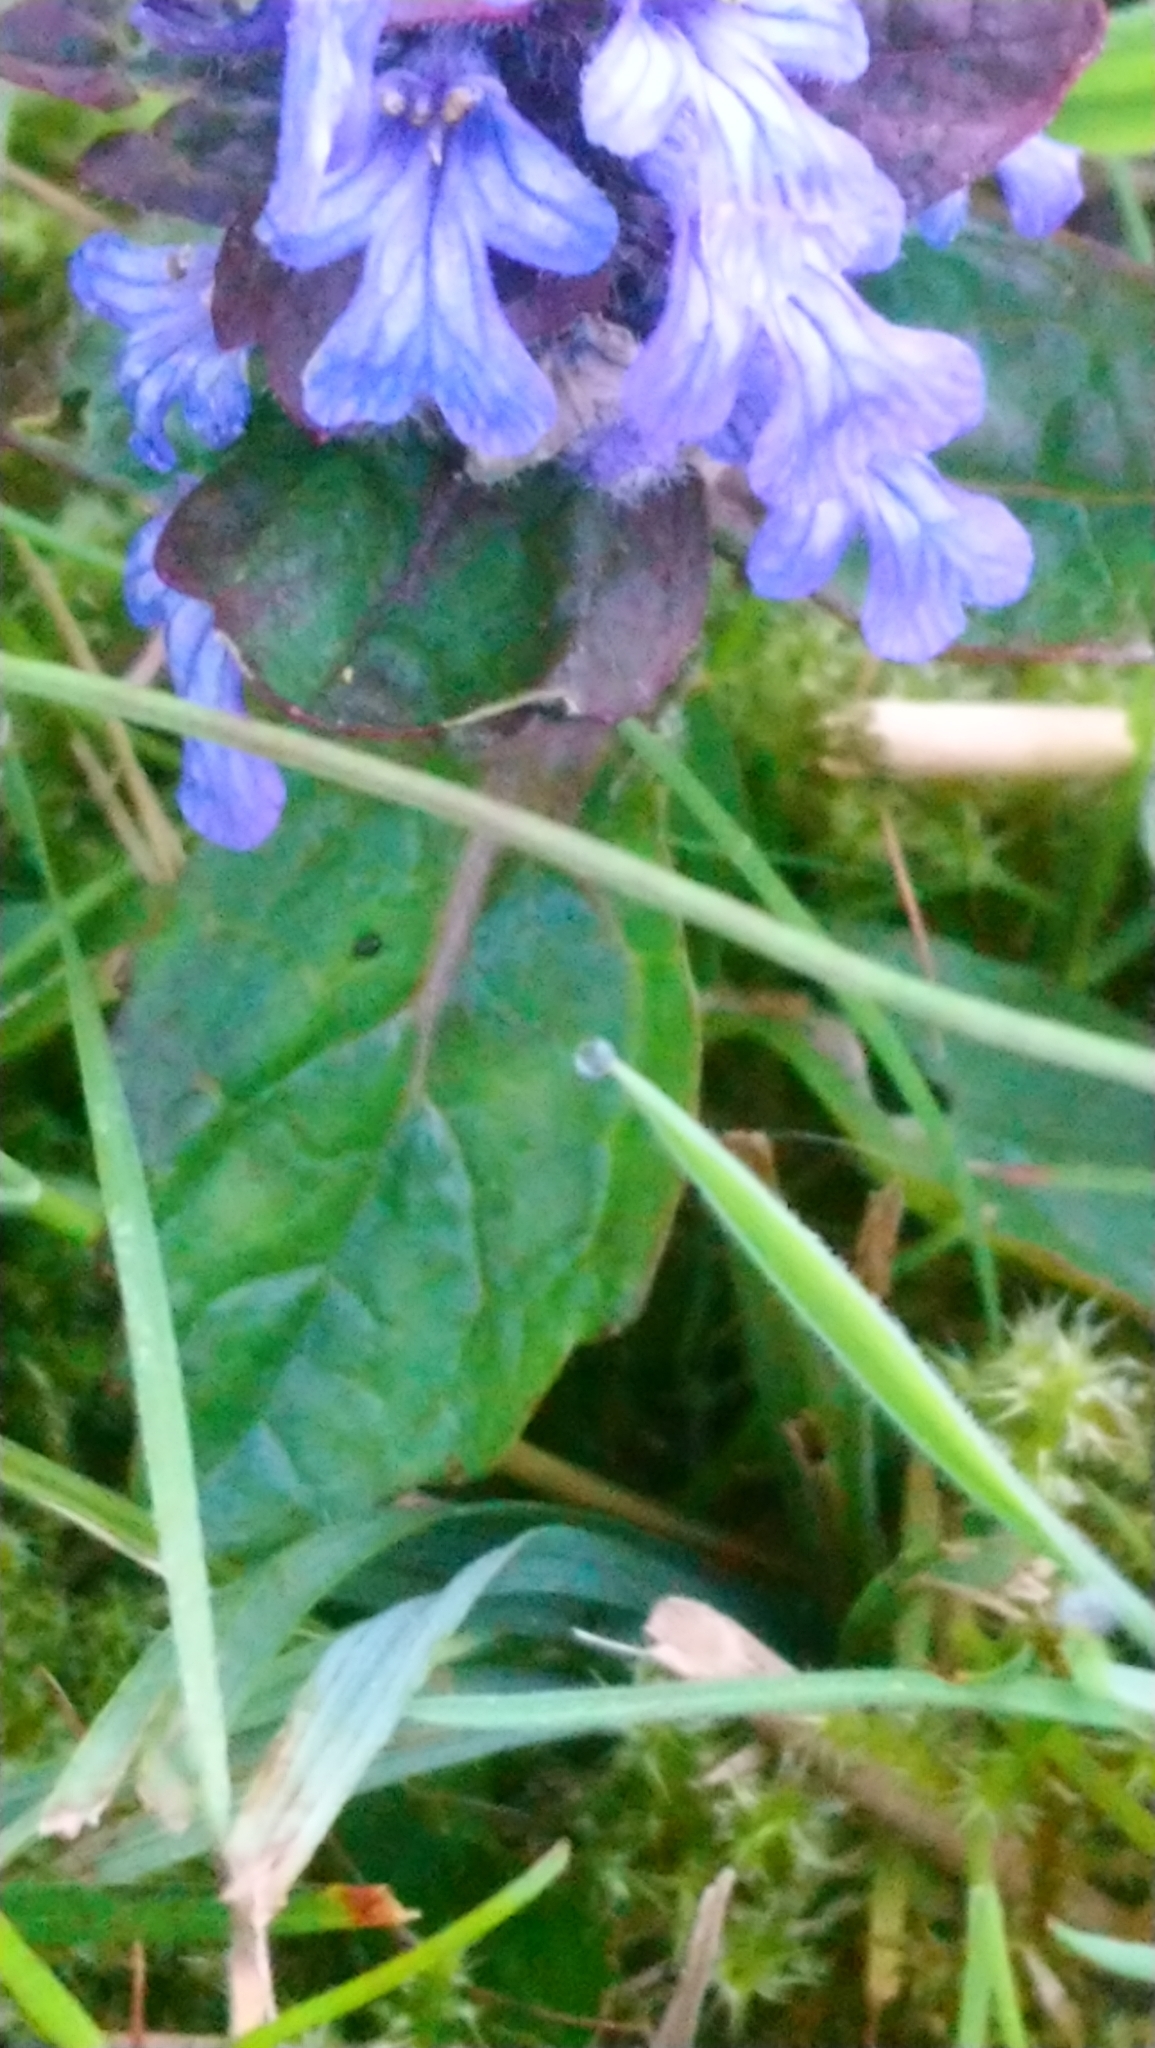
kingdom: Plantae
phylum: Tracheophyta
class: Magnoliopsida
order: Lamiales
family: Lamiaceae
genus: Ajuga
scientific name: Ajuga reptans
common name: Bugle
